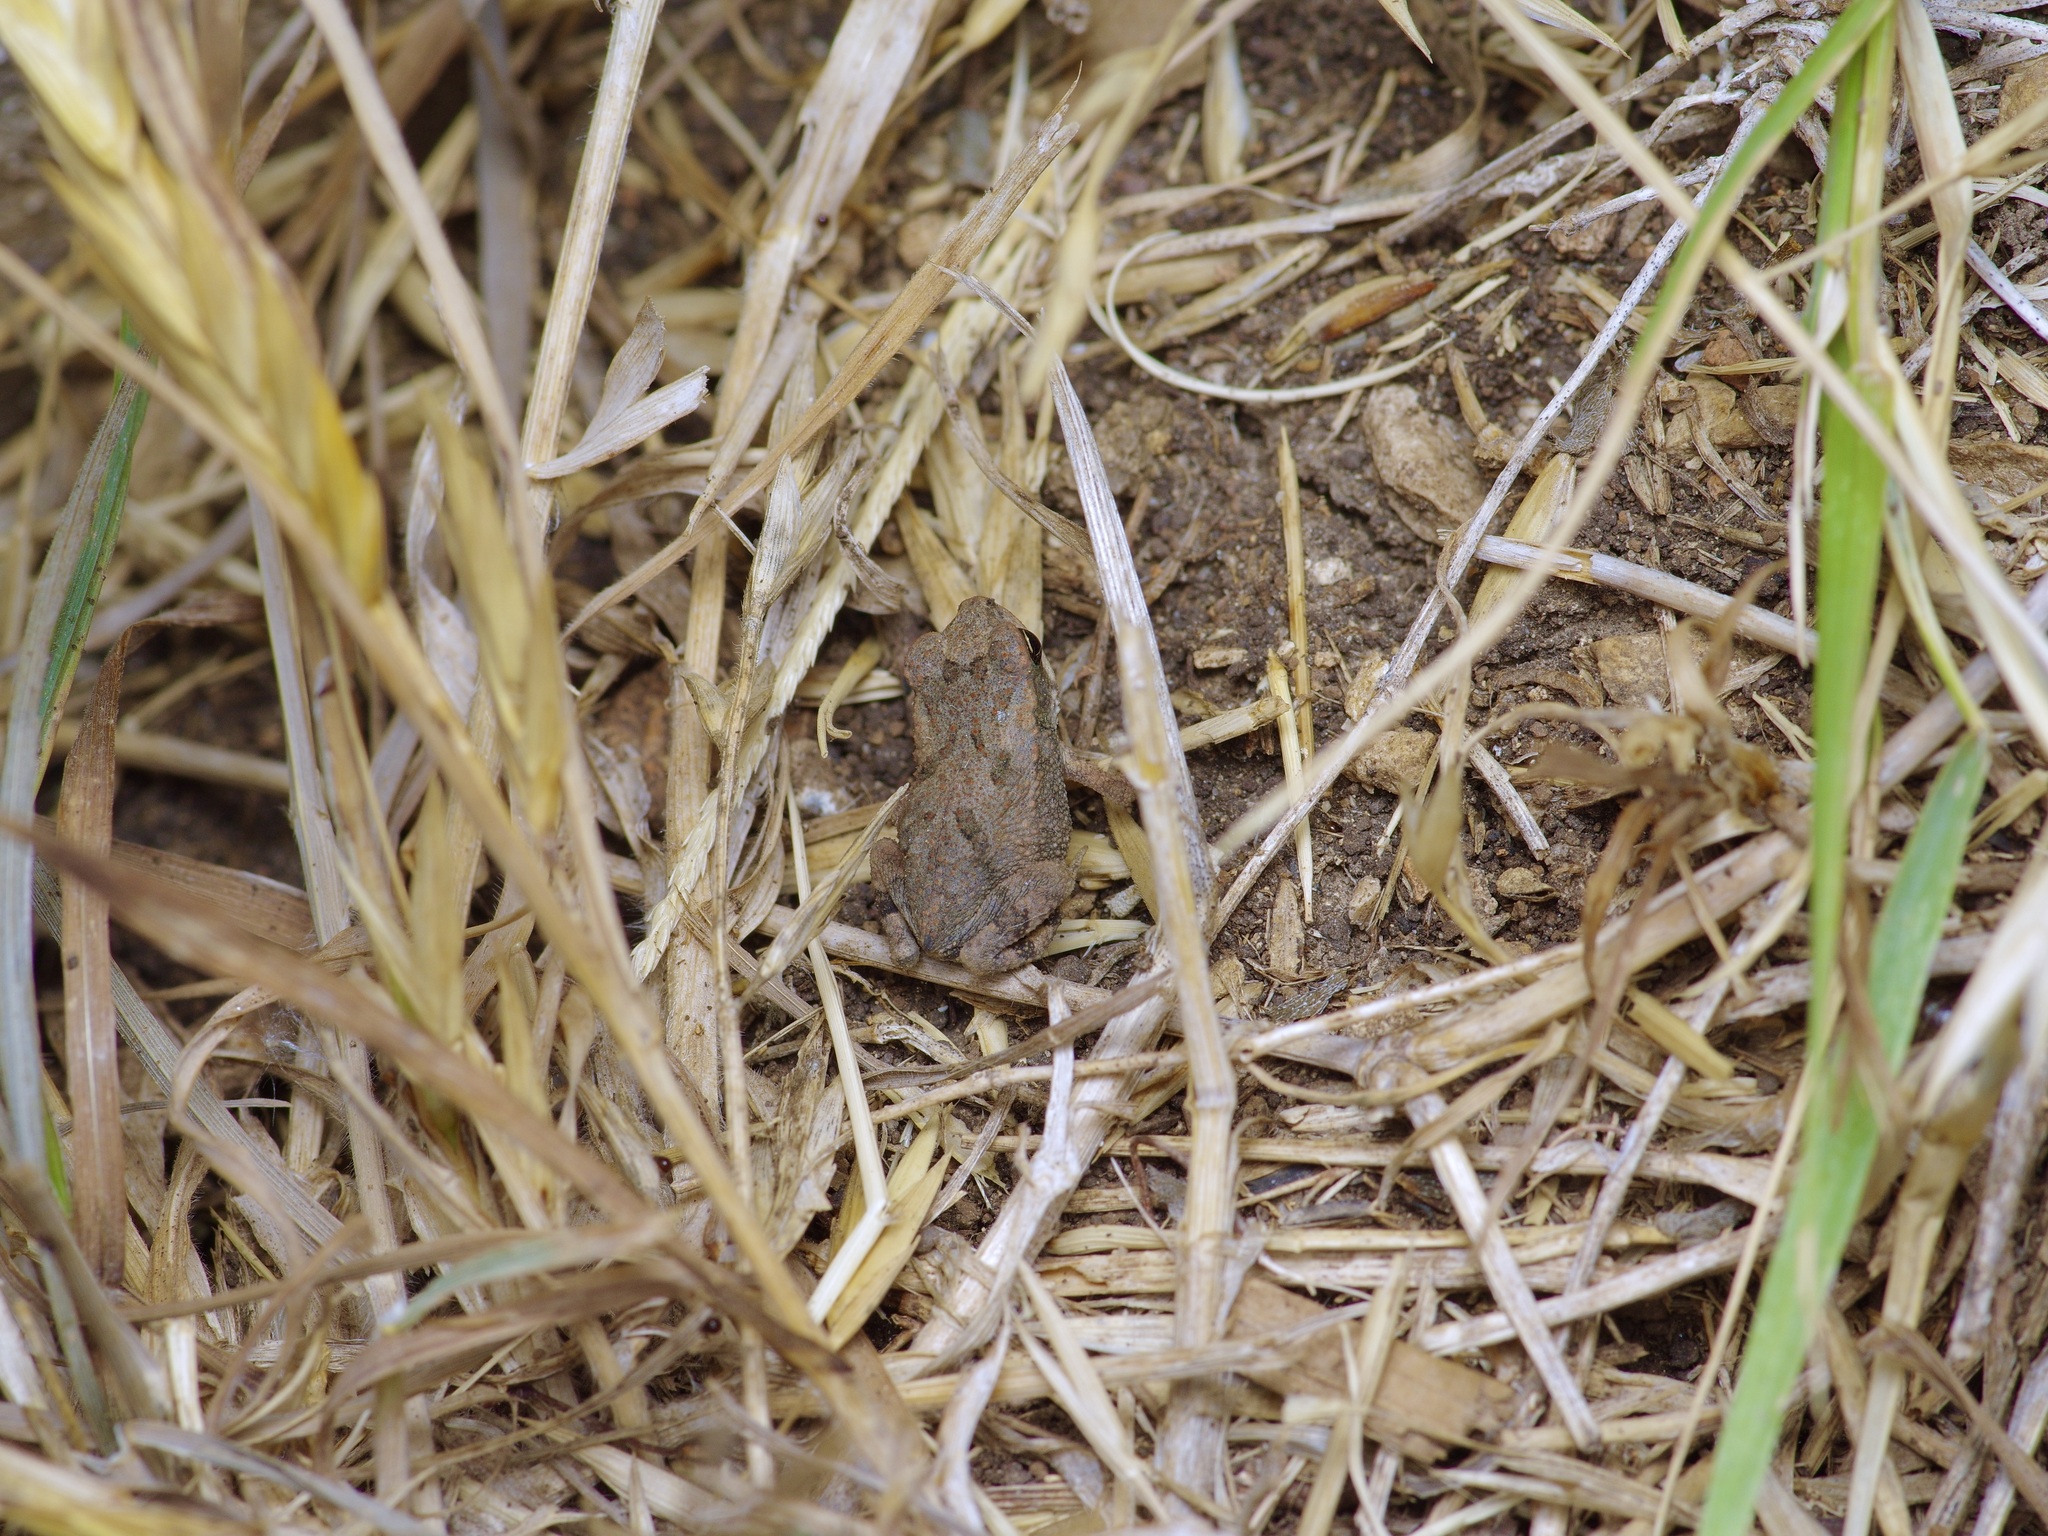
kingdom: Animalia
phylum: Chordata
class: Amphibia
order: Anura
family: Bufonidae
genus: Incilius
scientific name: Incilius nebulifer
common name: Gulf coast toad
